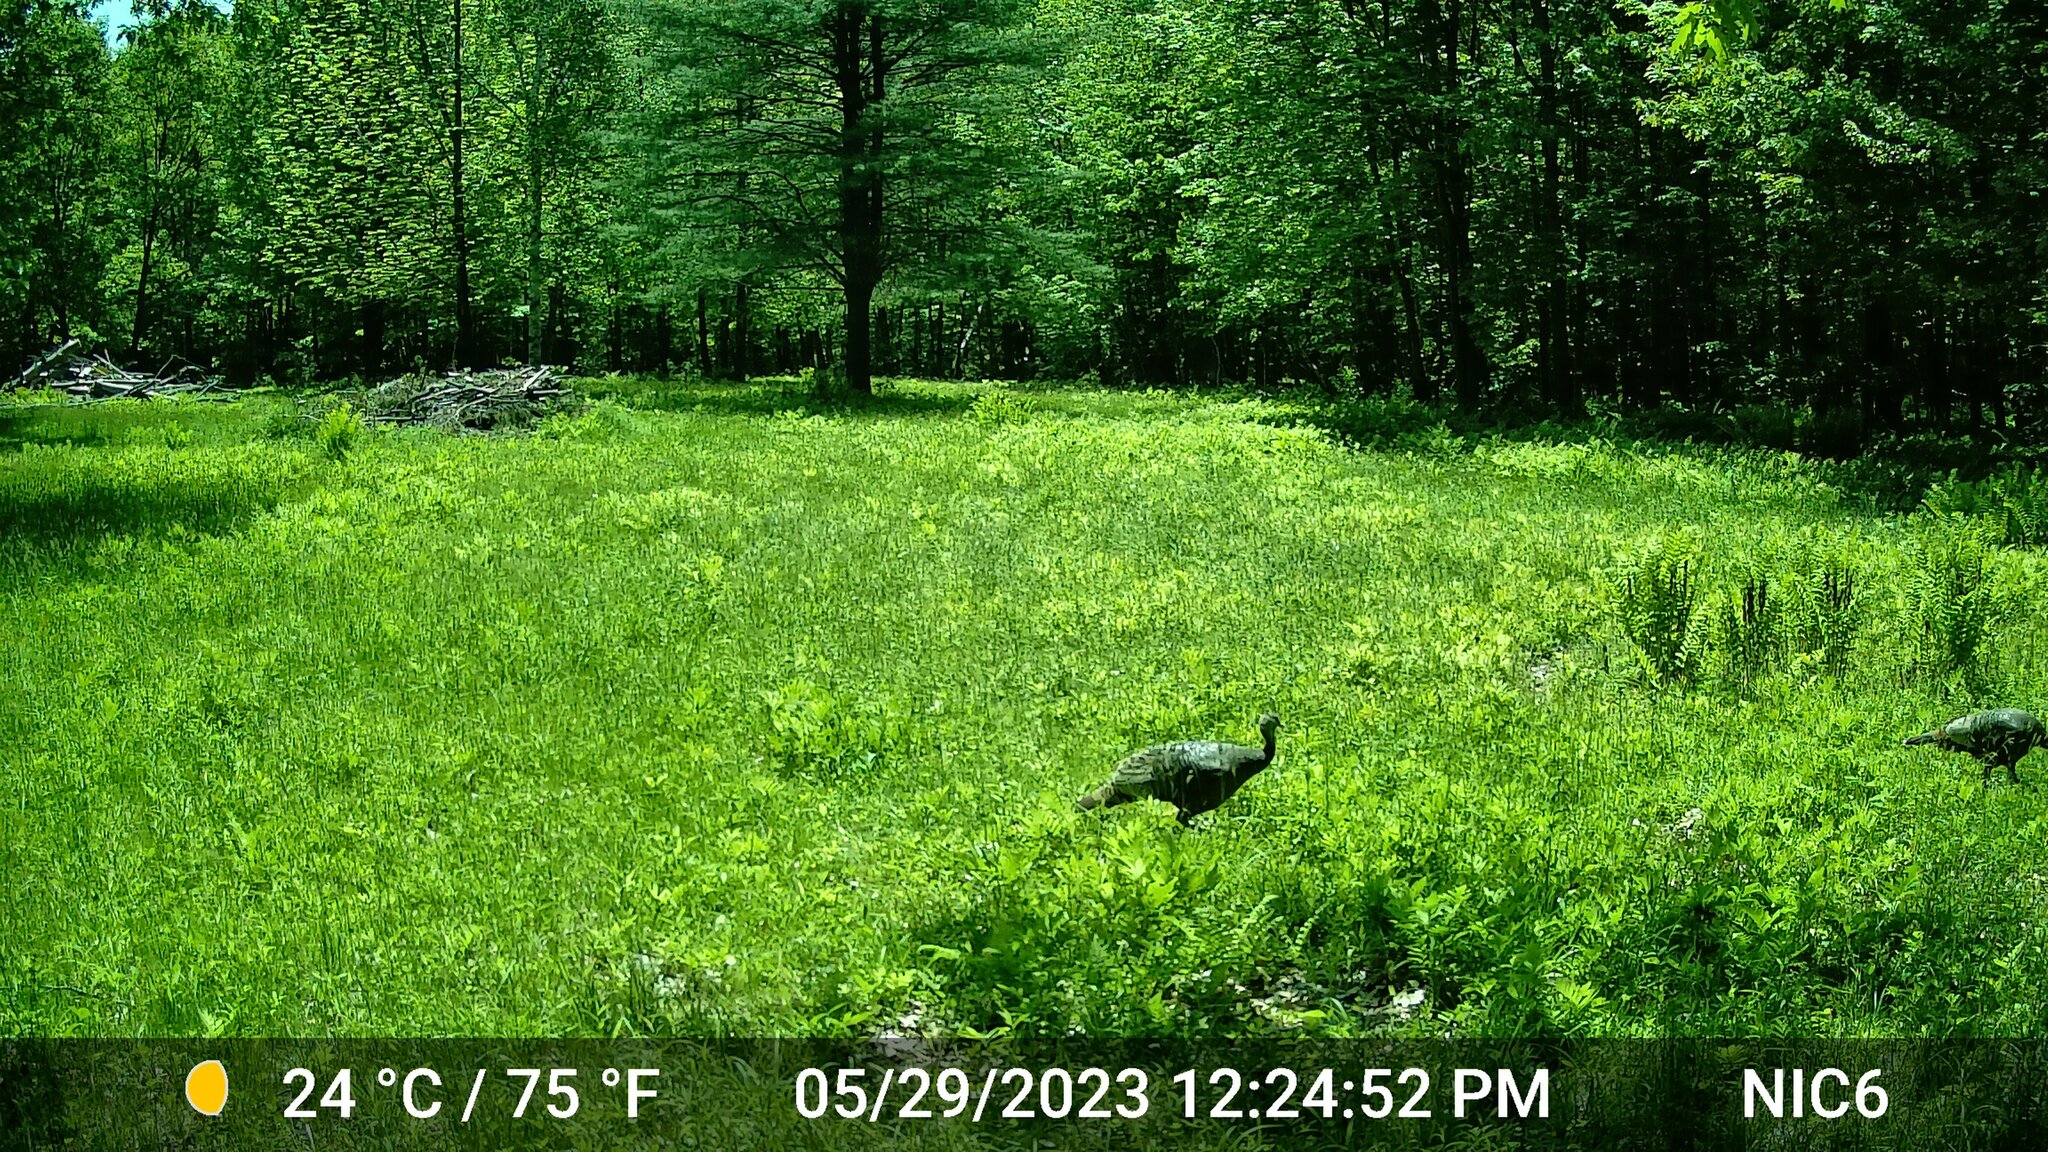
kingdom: Animalia
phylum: Chordata
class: Aves
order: Galliformes
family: Phasianidae
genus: Meleagris
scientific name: Meleagris gallopavo
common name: Wild turkey
